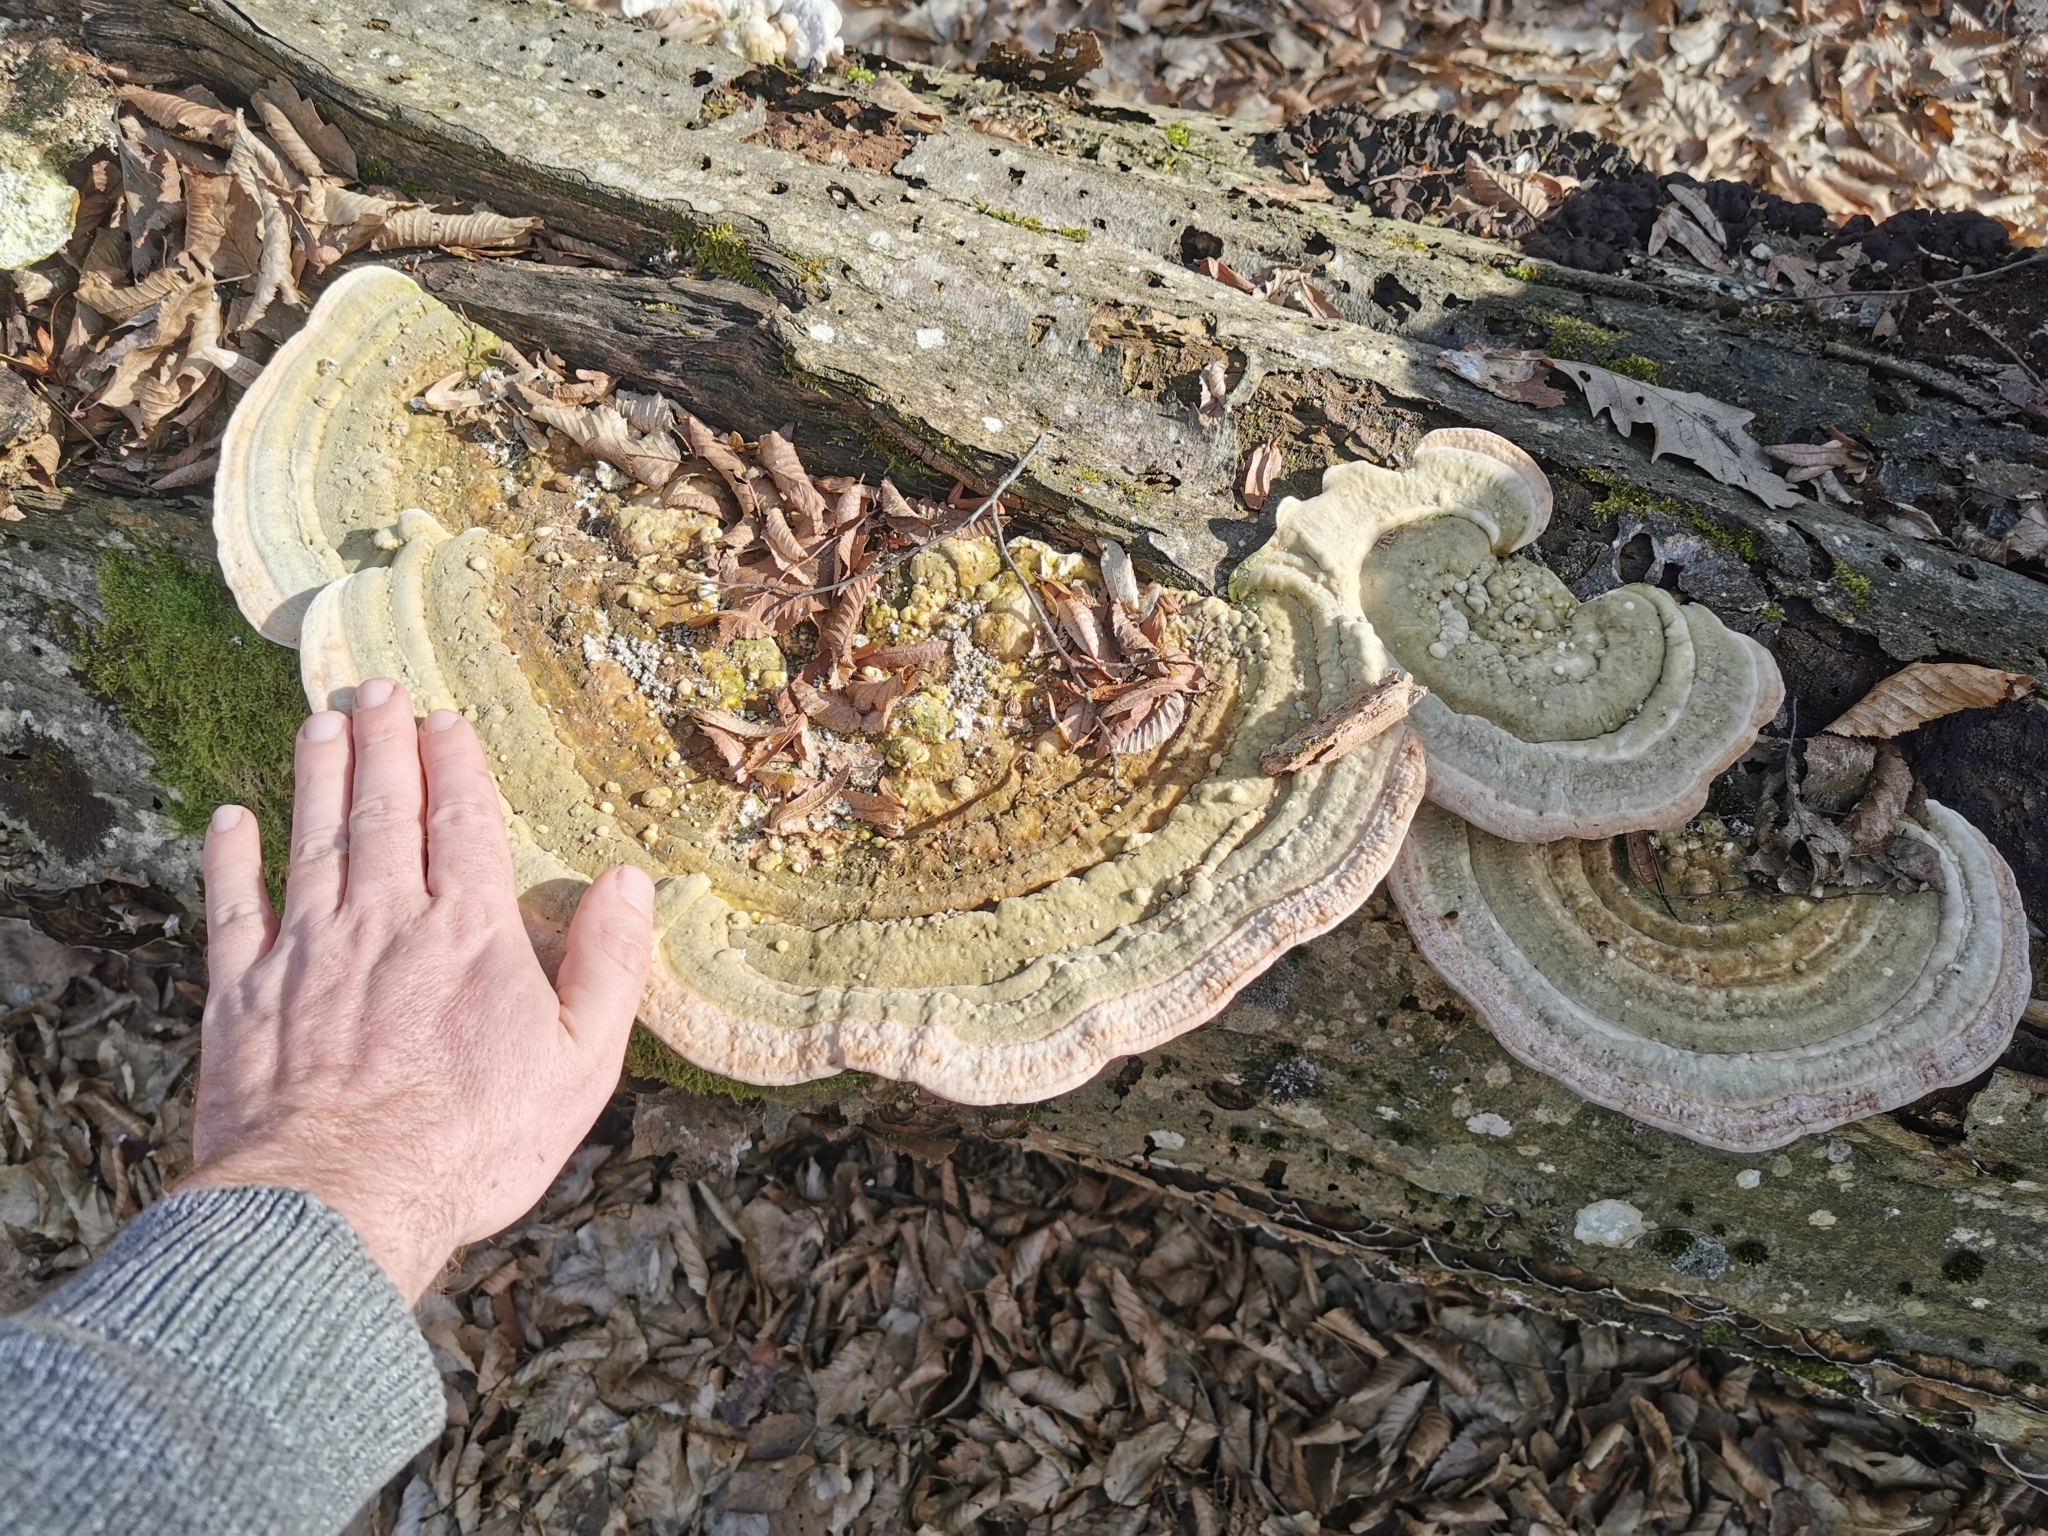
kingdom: Fungi
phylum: Basidiomycota
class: Agaricomycetes
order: Polyporales
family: Polyporaceae
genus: Trametes
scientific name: Trametes gibbosa
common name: Lumpy bracket
